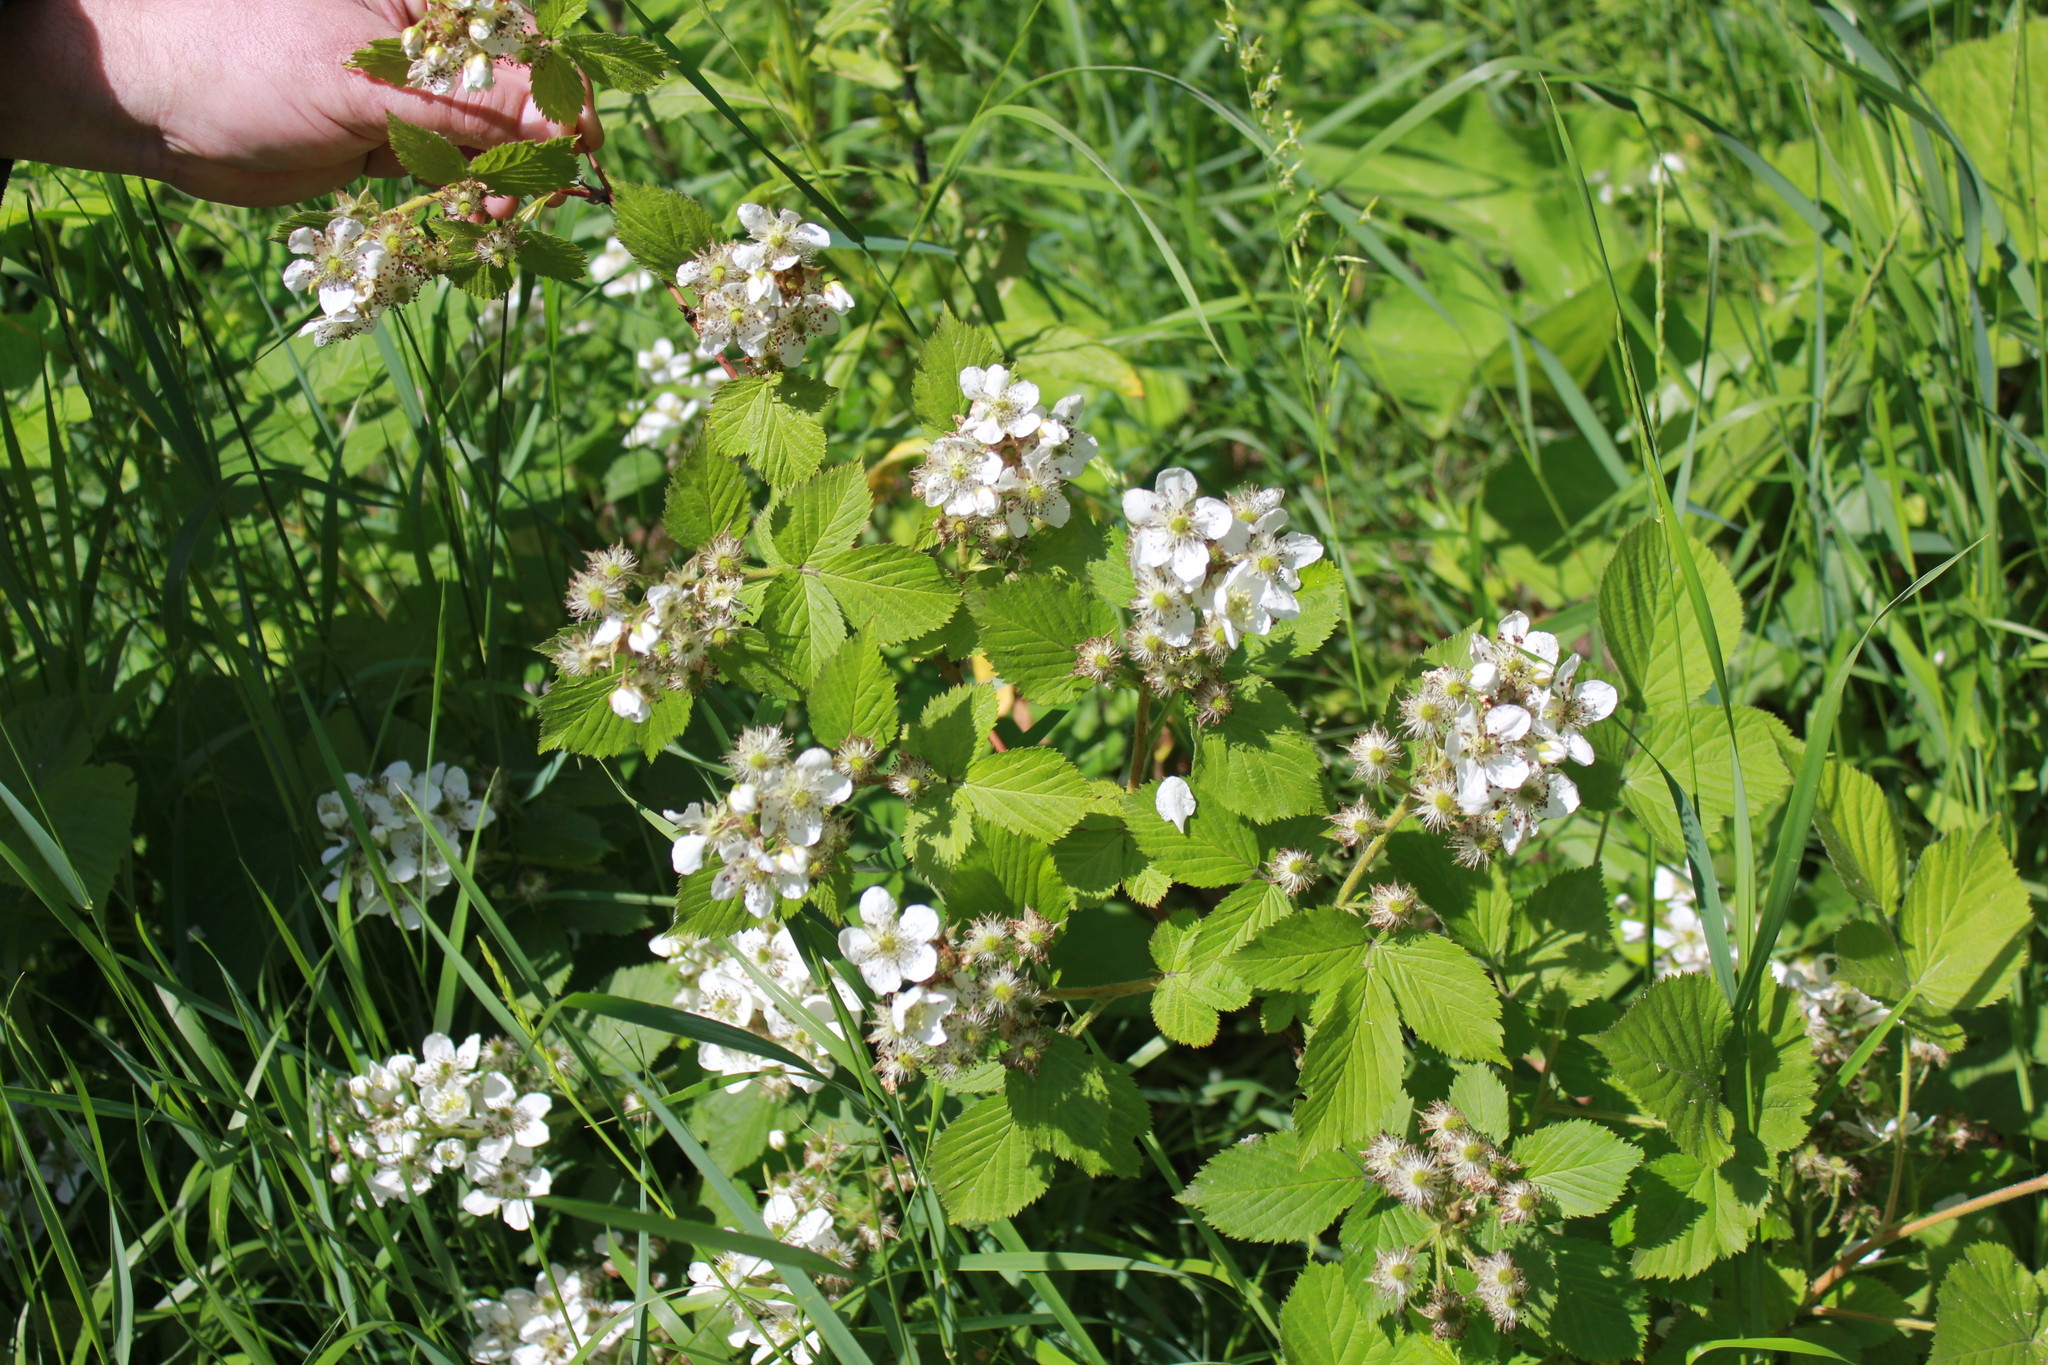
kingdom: Plantae
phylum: Tracheophyta
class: Magnoliopsida
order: Rosales
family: Rosaceae
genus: Rubus
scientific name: Rubus allegheniensis
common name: Allegheny blackberry
